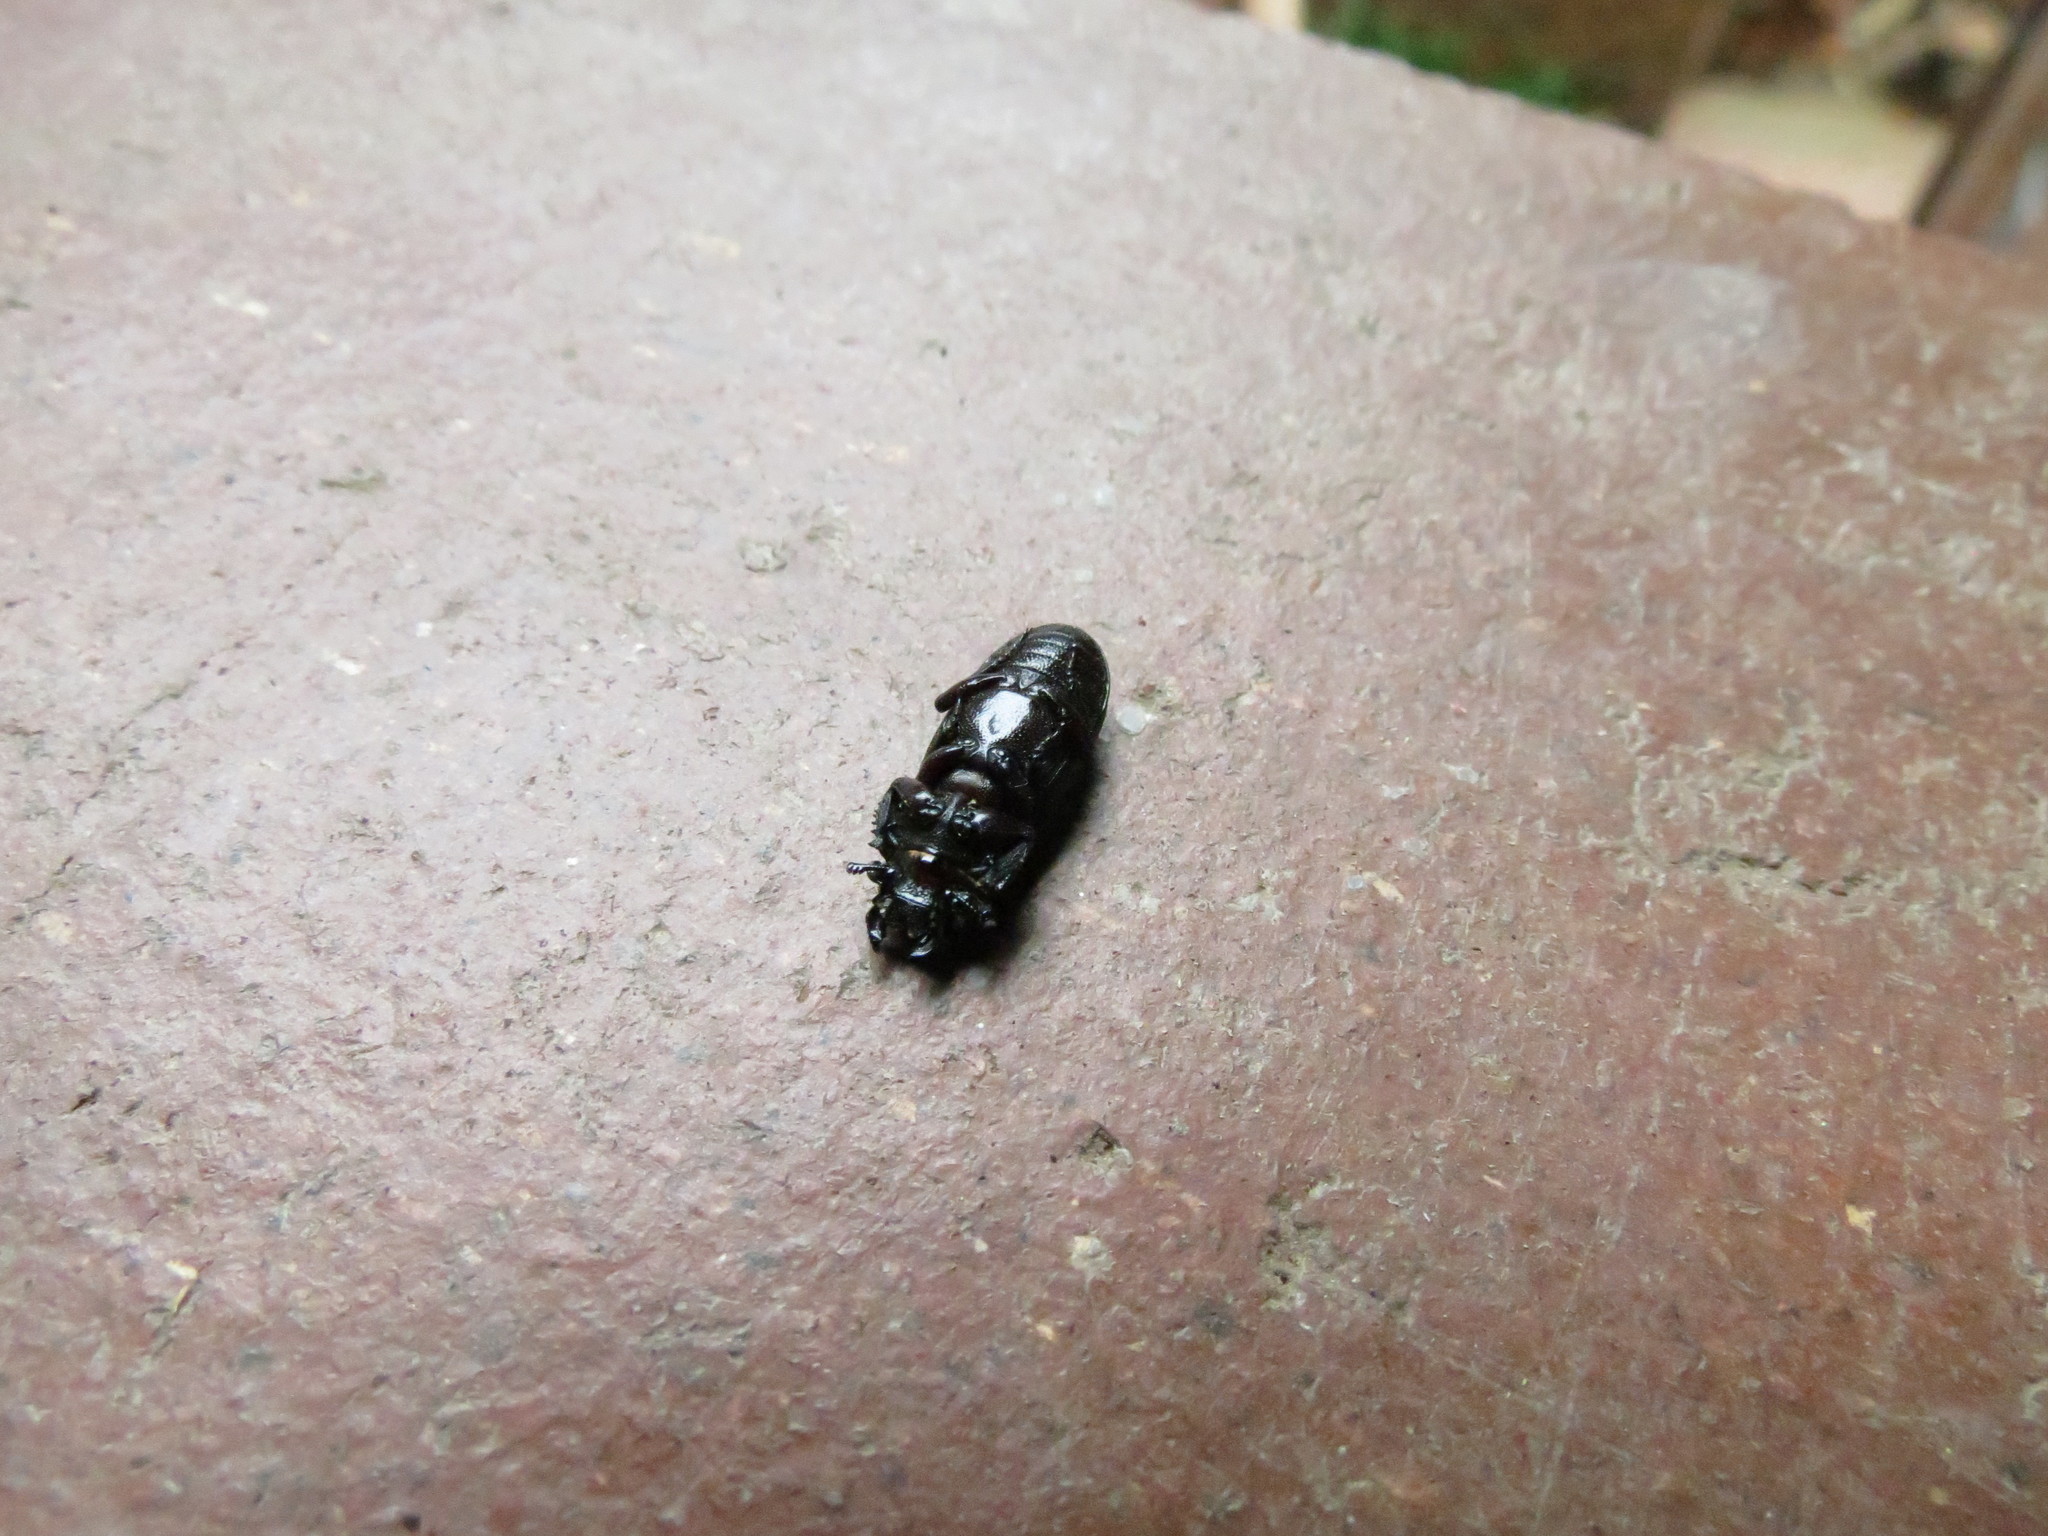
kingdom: Animalia
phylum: Arthropoda
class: Insecta
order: Coleoptera
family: Lucanidae
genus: Nigidius
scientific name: Nigidius delegorguei
